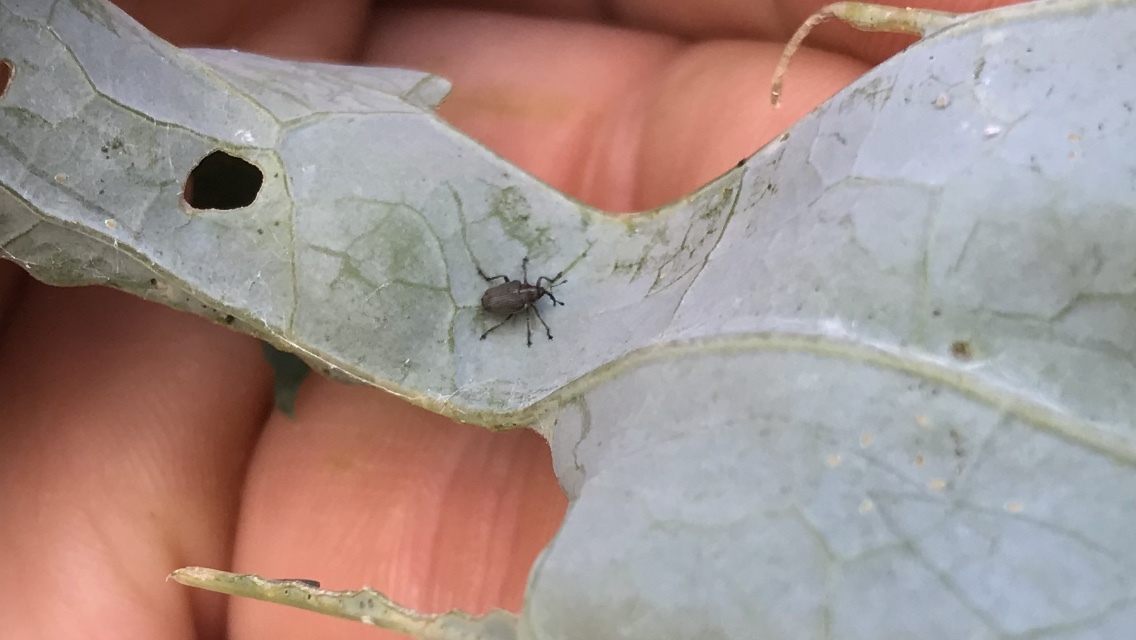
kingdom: Animalia
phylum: Arthropoda
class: Insecta
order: Coleoptera
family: Curculionidae
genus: Ceutorhynchus
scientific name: Ceutorhynchus obstrictus
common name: Cabbage seed weevil
